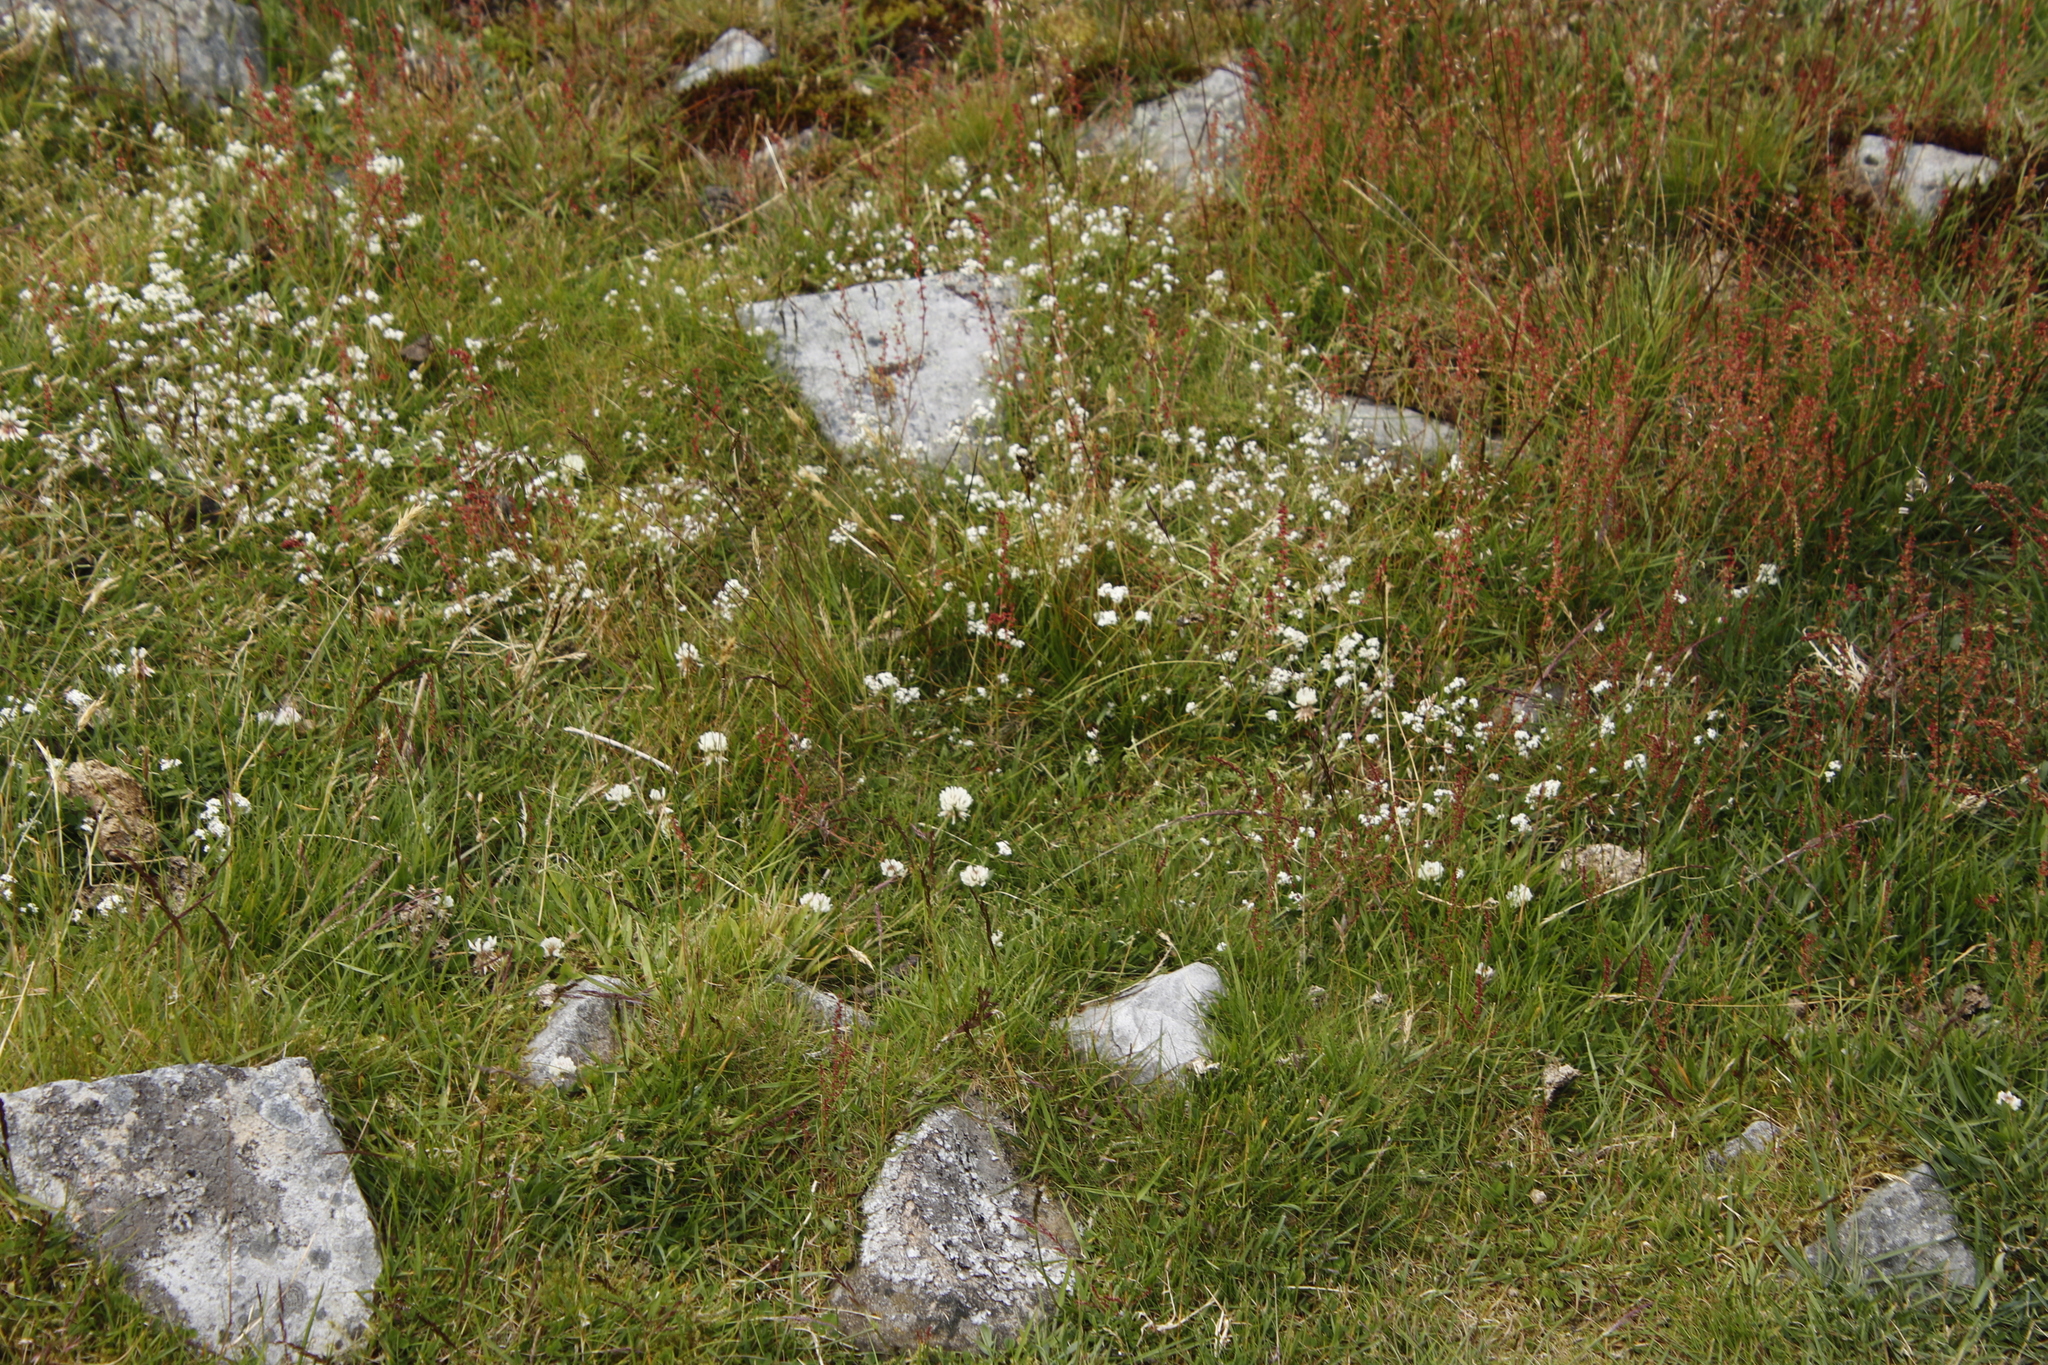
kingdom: Plantae
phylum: Tracheophyta
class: Magnoliopsida
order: Fabales
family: Fabaceae
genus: Trifolium
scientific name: Trifolium repens
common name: White clover
